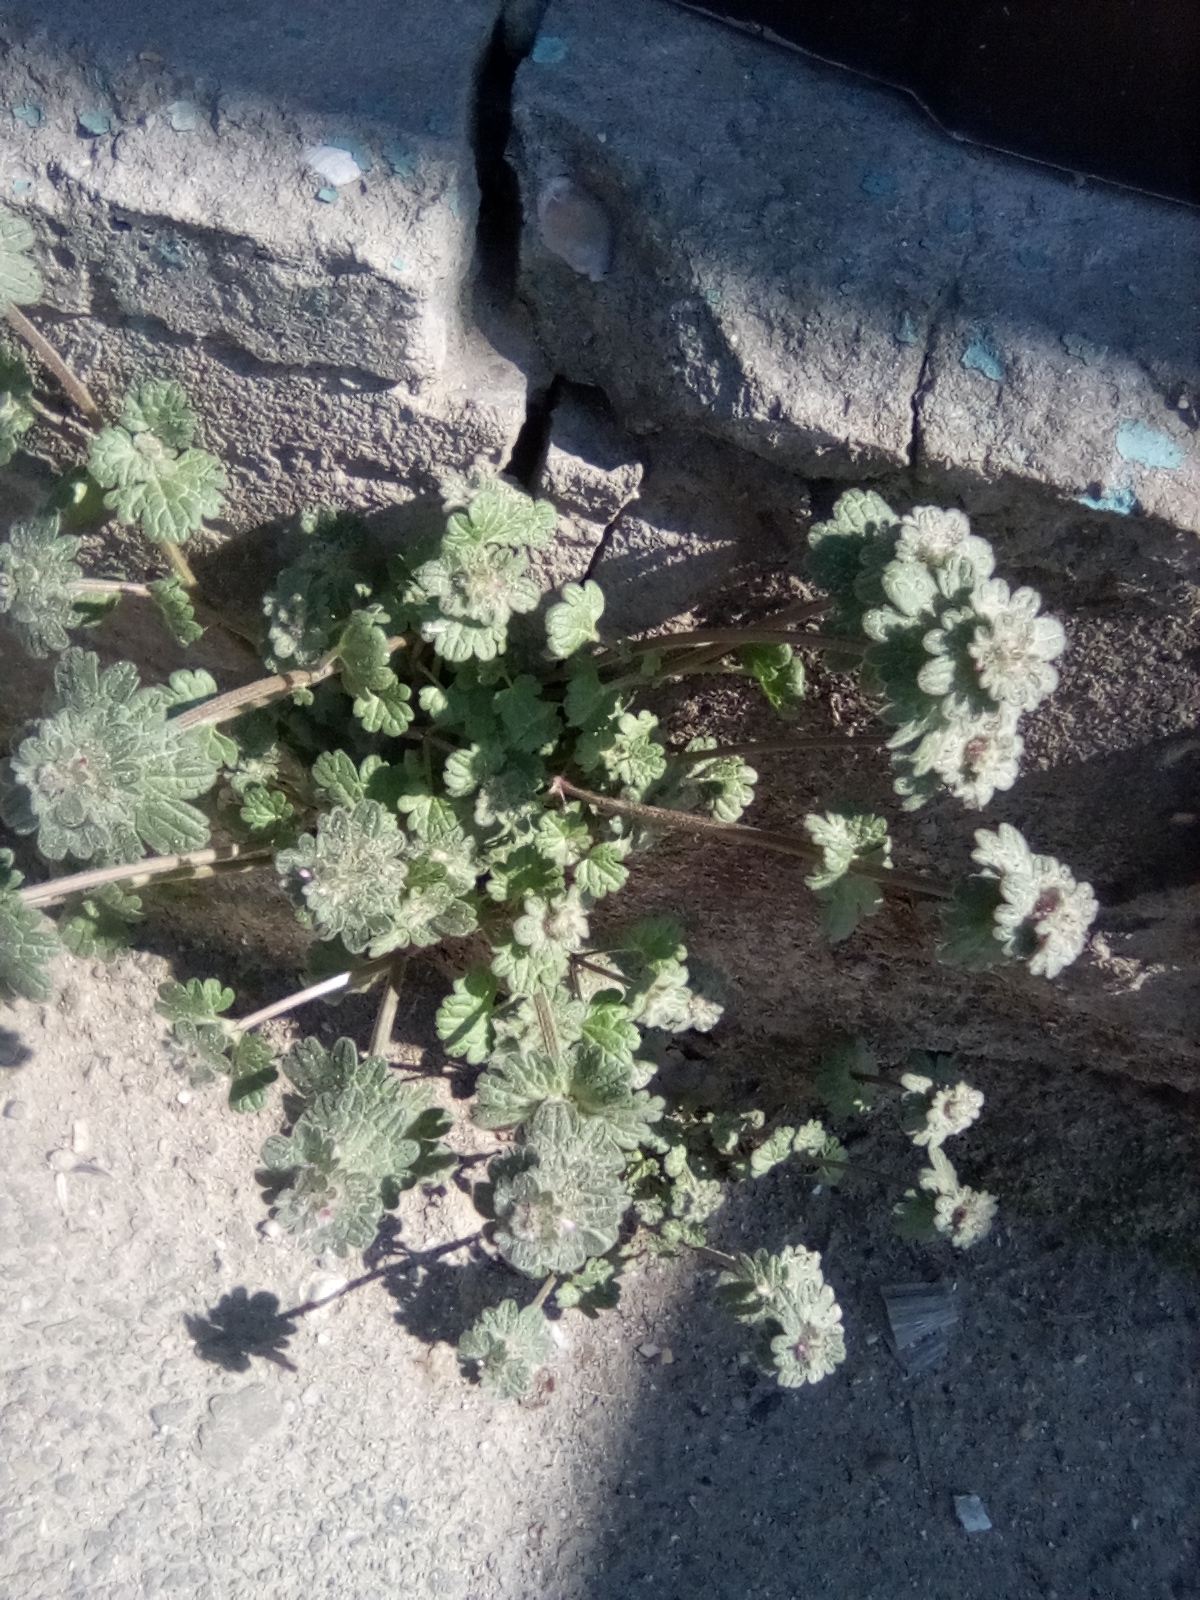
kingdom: Plantae
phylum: Tracheophyta
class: Magnoliopsida
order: Lamiales
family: Lamiaceae
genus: Lamium
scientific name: Lamium amplexicaule
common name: Henbit dead-nettle
